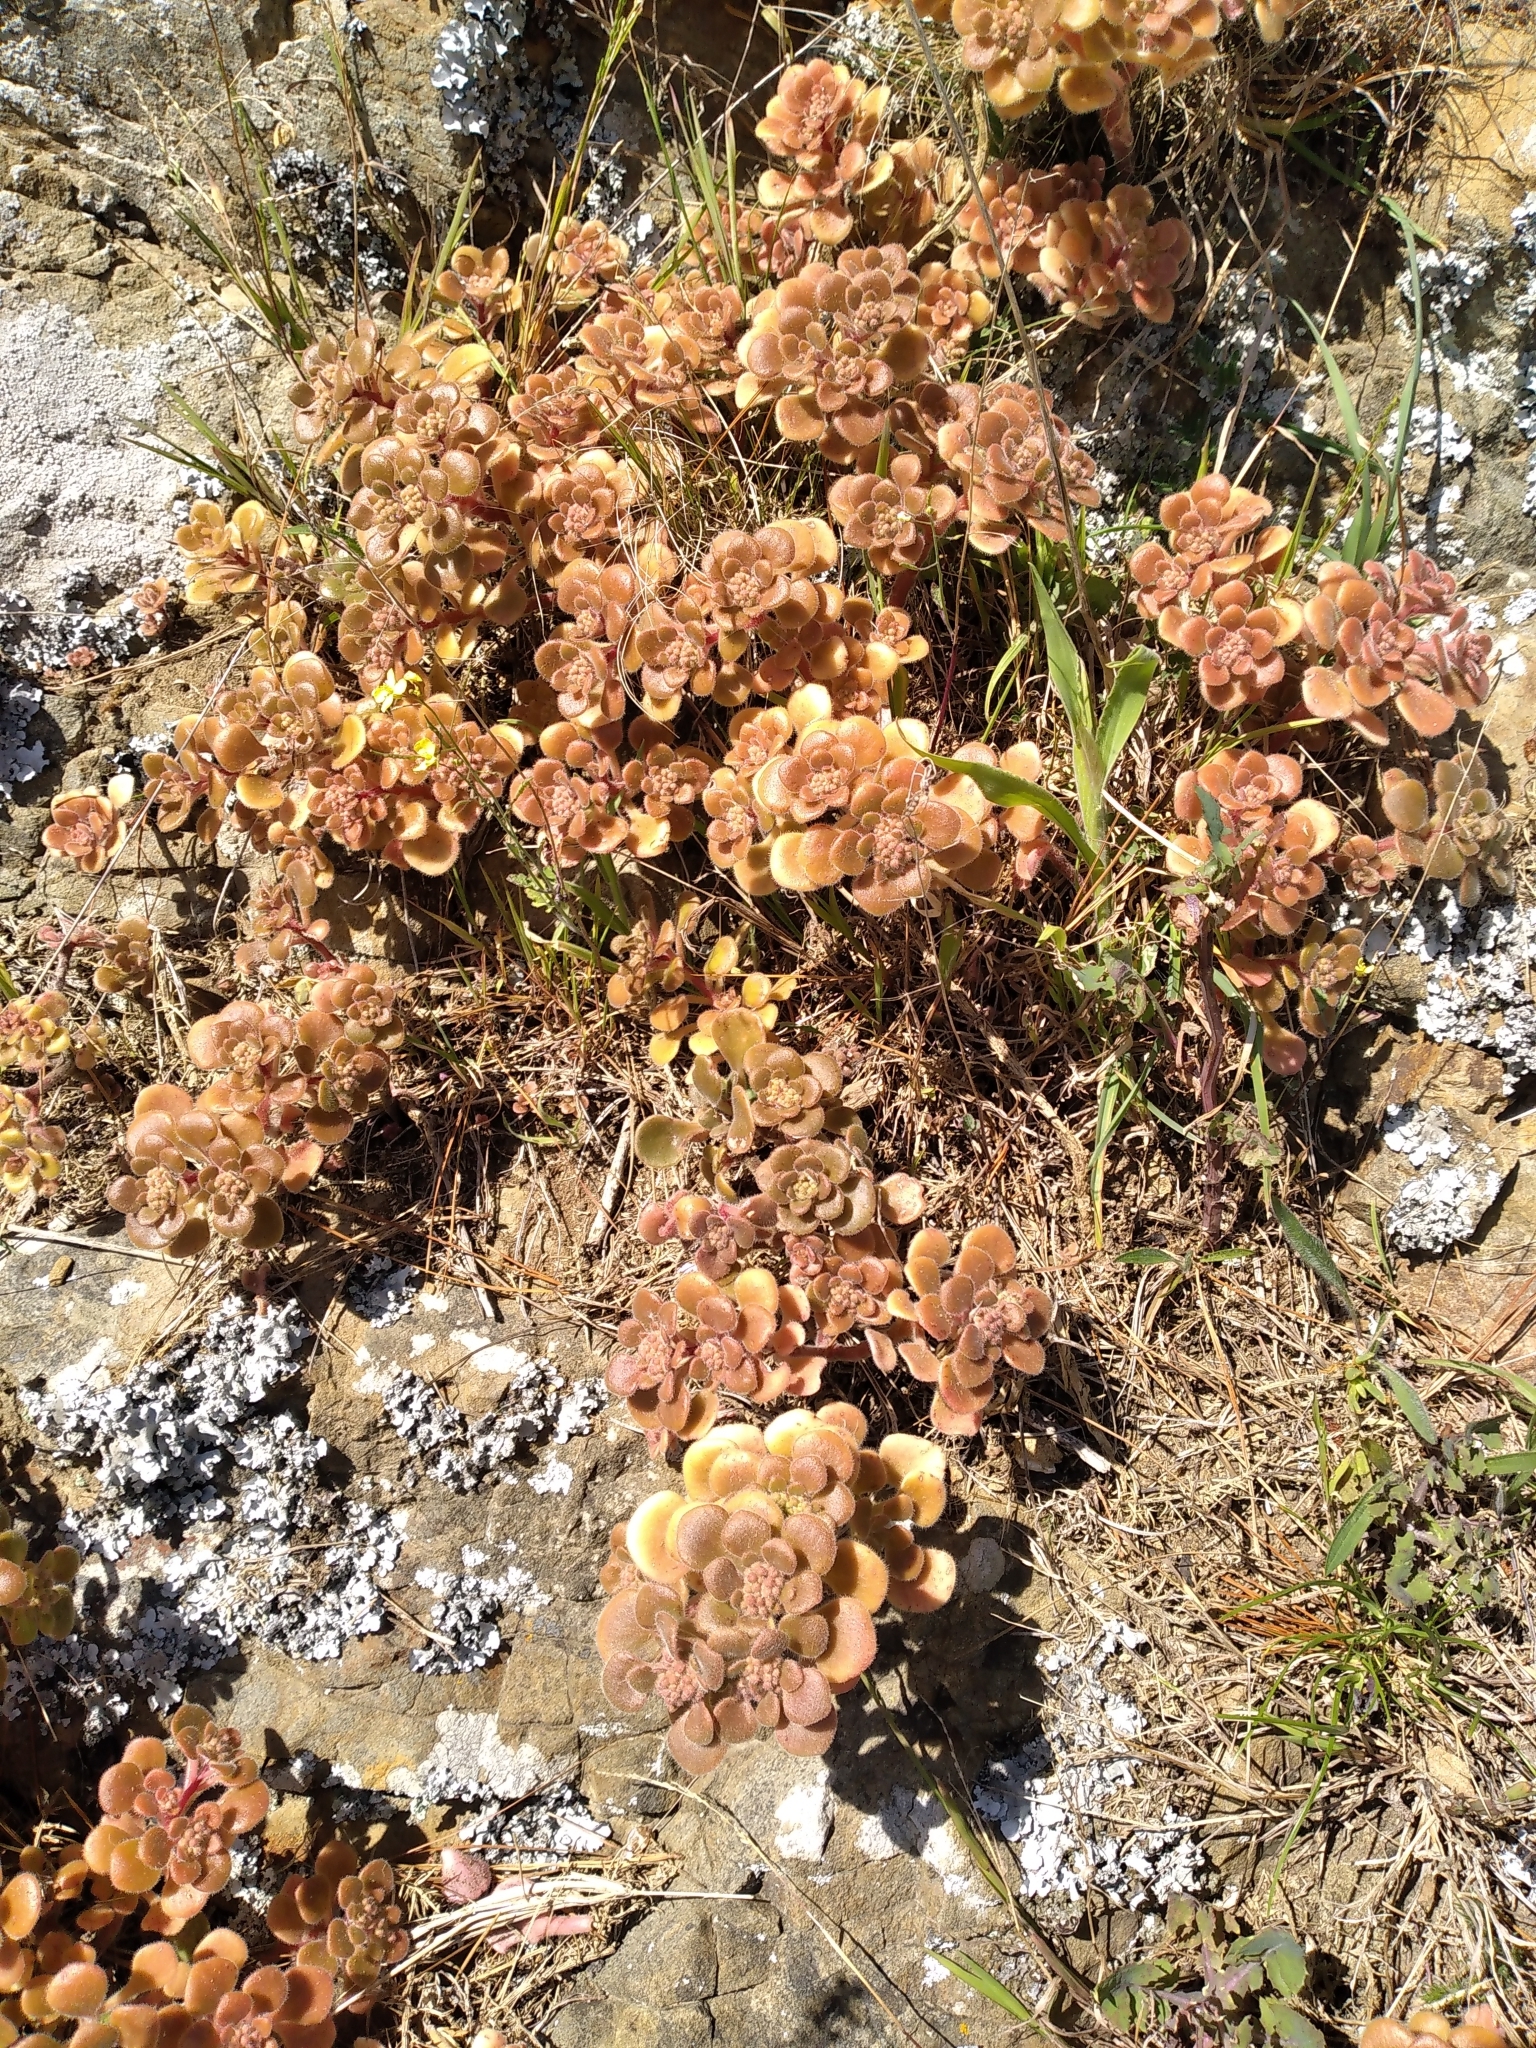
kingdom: Plantae
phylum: Tracheophyta
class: Magnoliopsida
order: Saxifragales
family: Crassulaceae
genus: Aichryson
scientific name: Aichryson laxum
